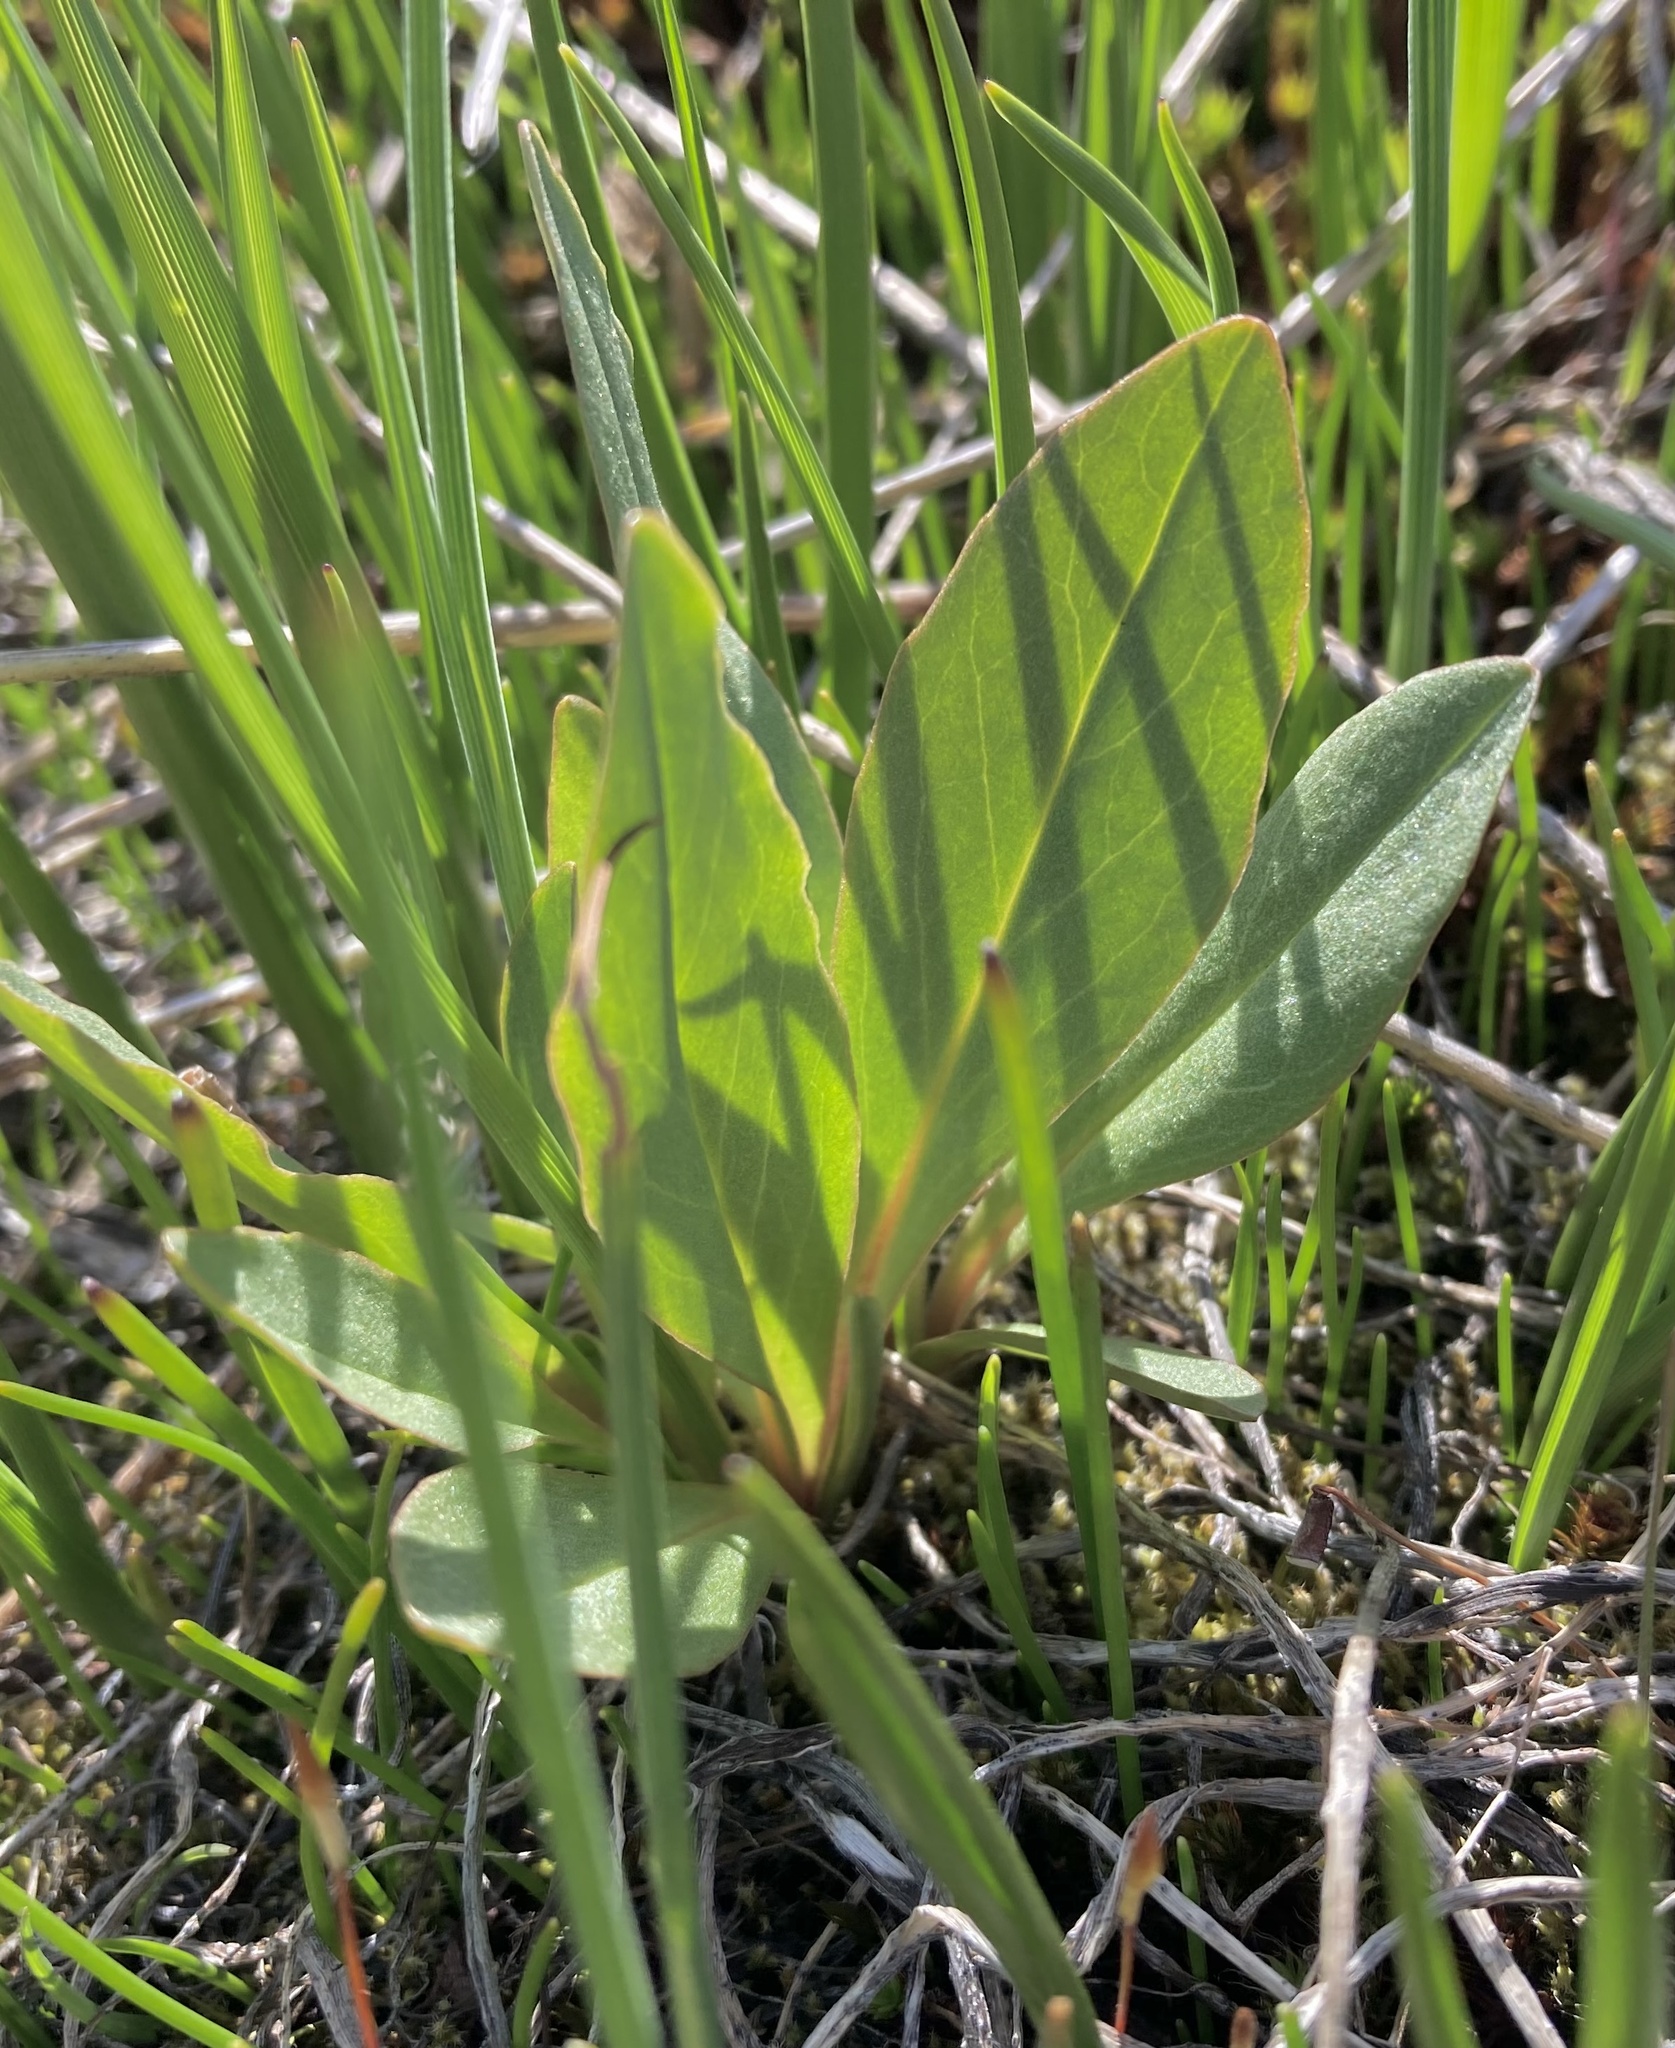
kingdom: Plantae
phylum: Tracheophyta
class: Magnoliopsida
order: Ericales
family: Primulaceae
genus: Dodecatheon
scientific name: Dodecatheon pulchellum
